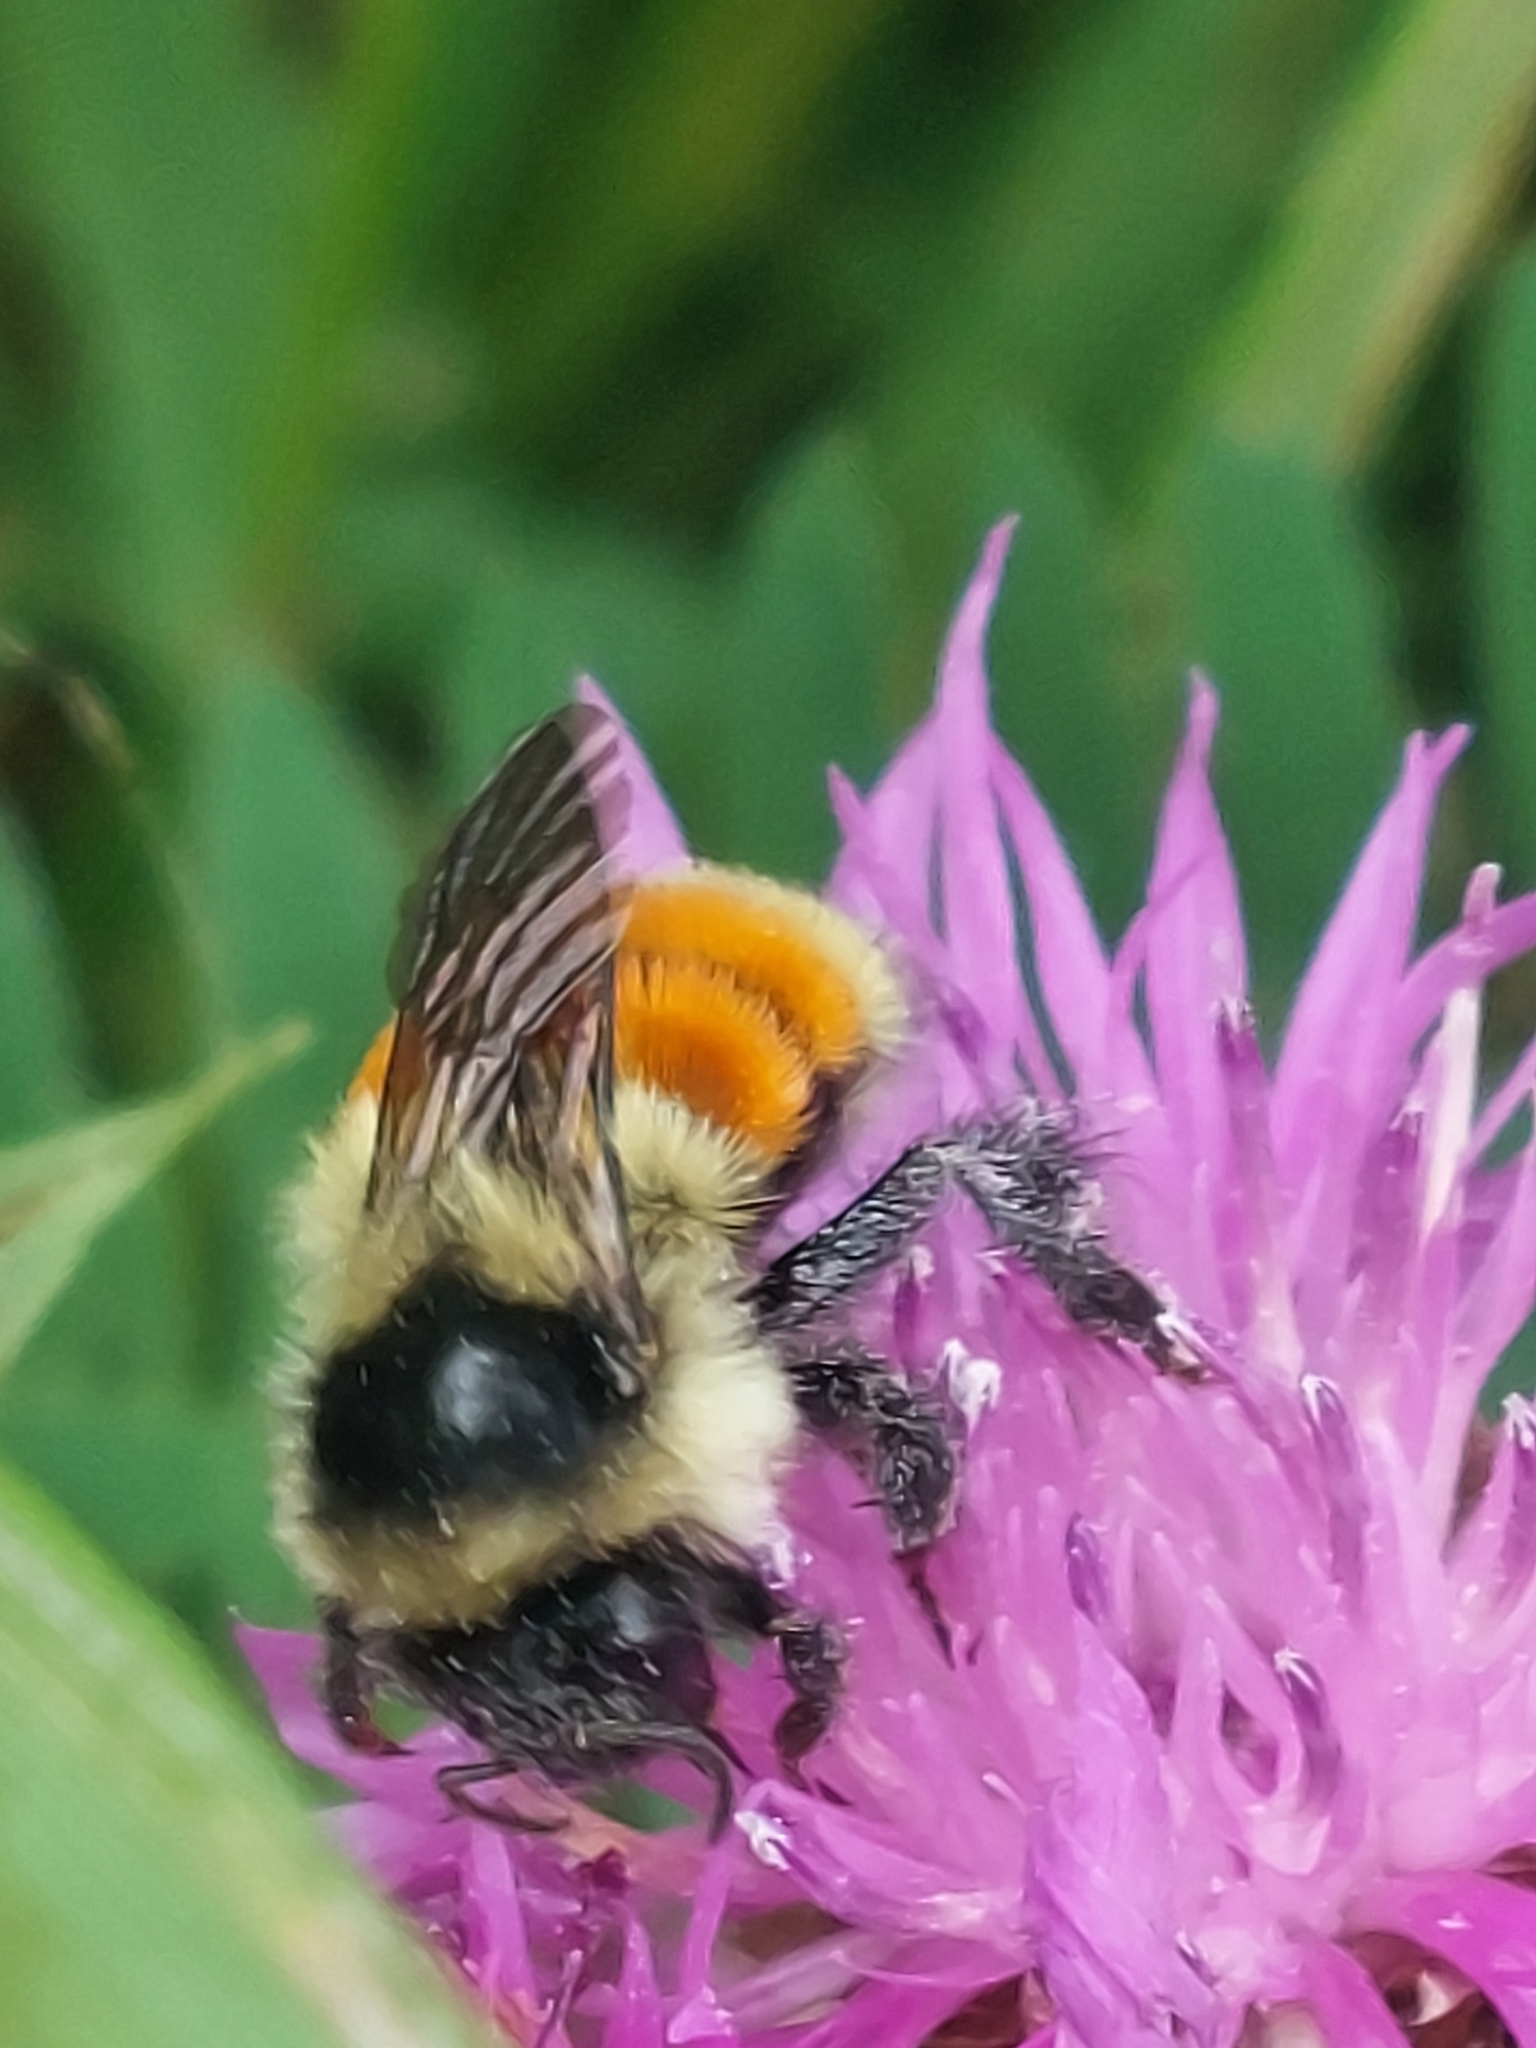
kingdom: Animalia
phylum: Arthropoda
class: Insecta
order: Hymenoptera
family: Apidae
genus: Bombus
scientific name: Bombus ternarius
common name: Tri-colored bumble bee
